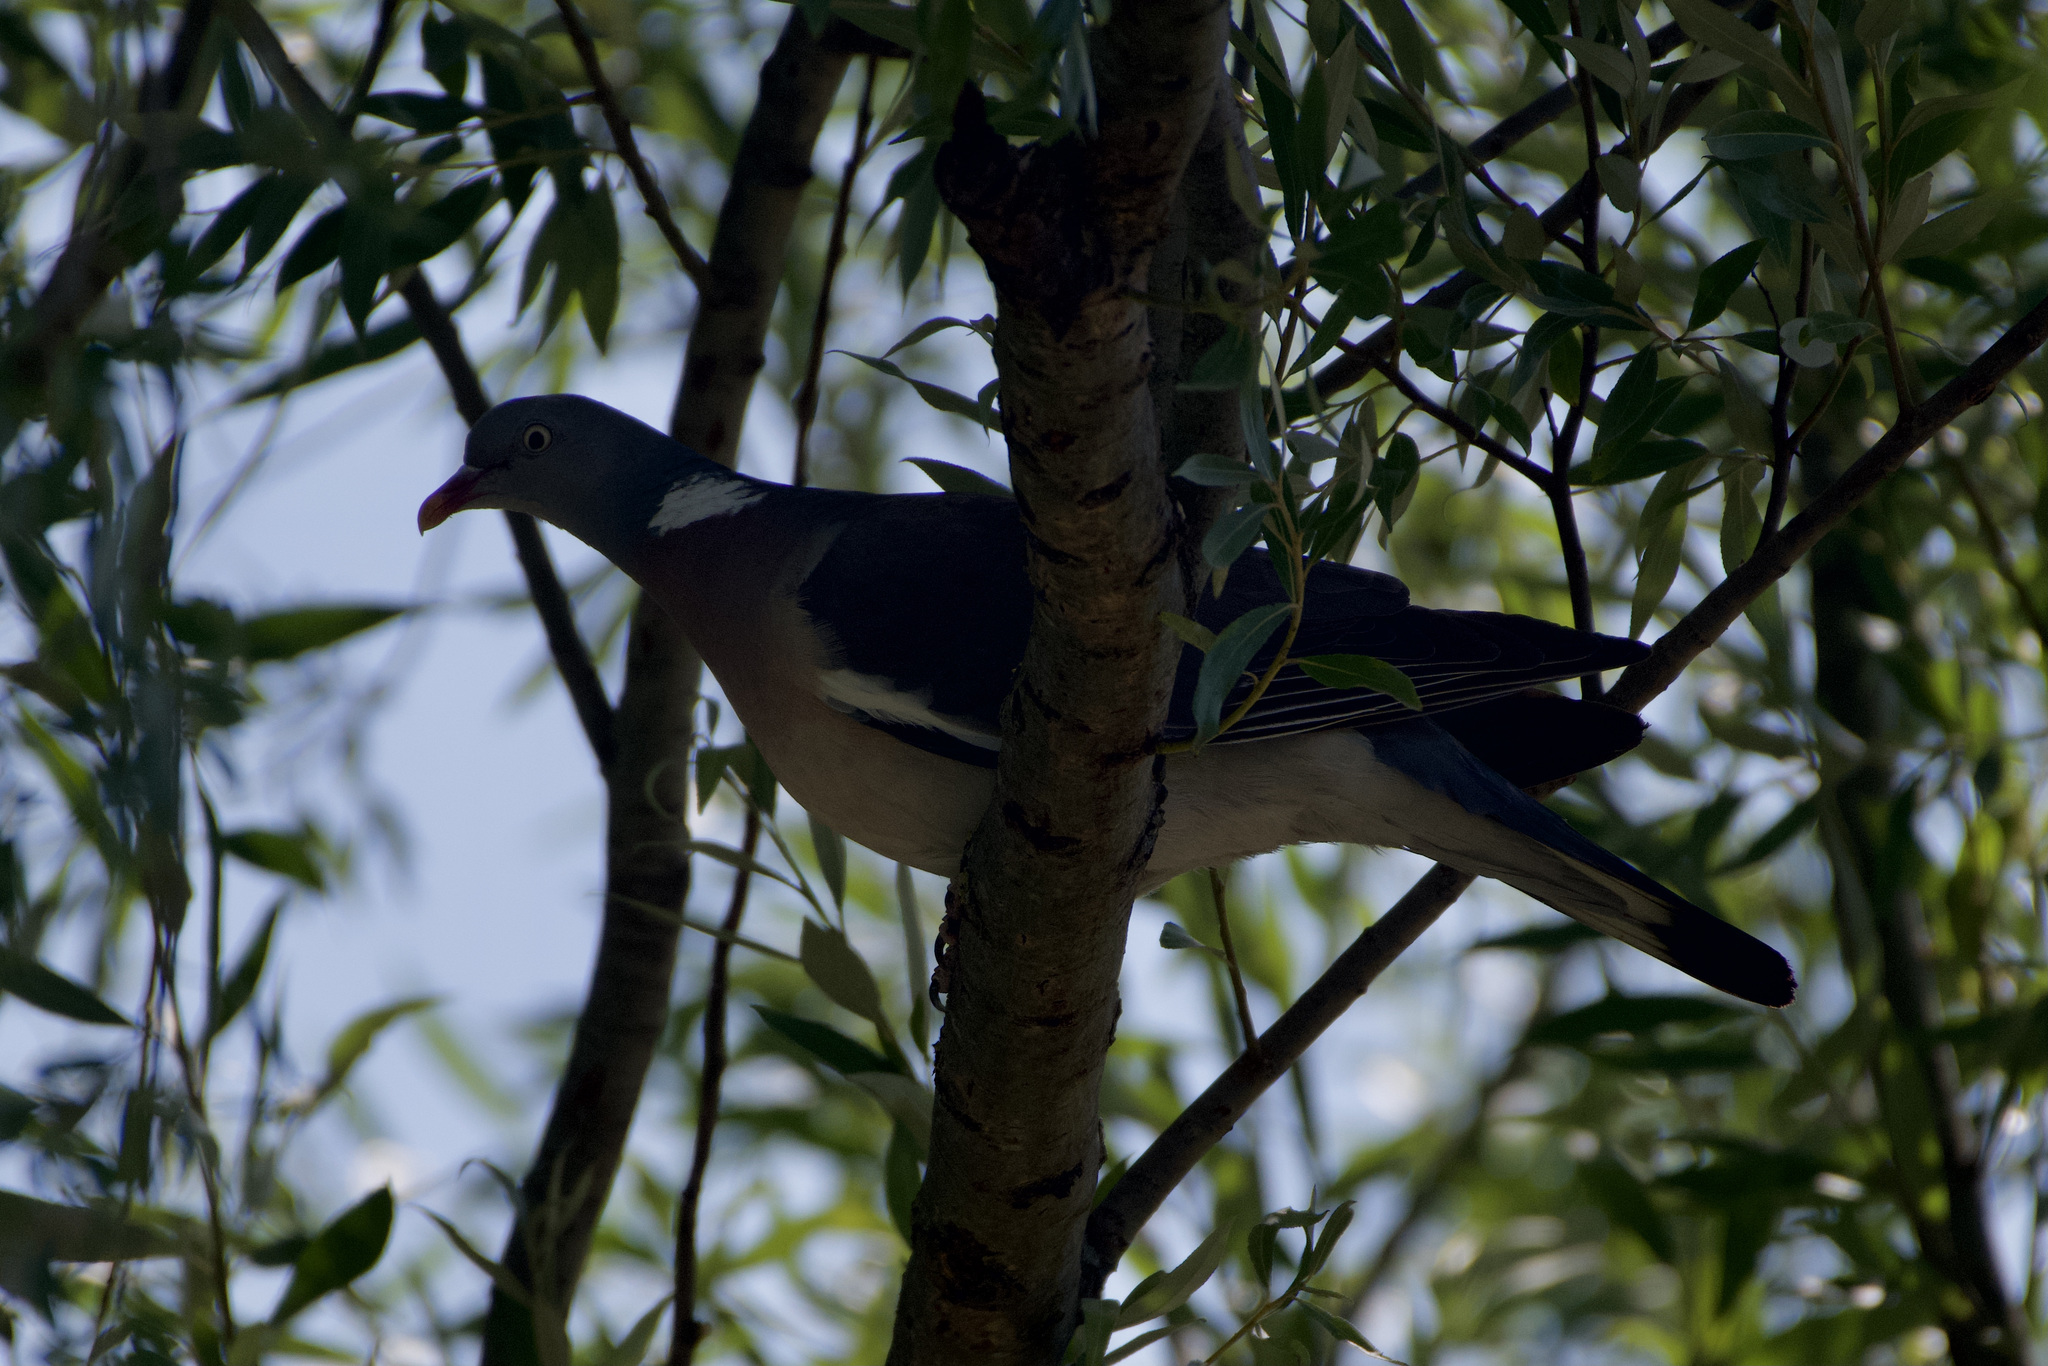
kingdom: Animalia
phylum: Chordata
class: Aves
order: Columbiformes
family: Columbidae
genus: Columba
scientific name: Columba palumbus
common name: Common wood pigeon
